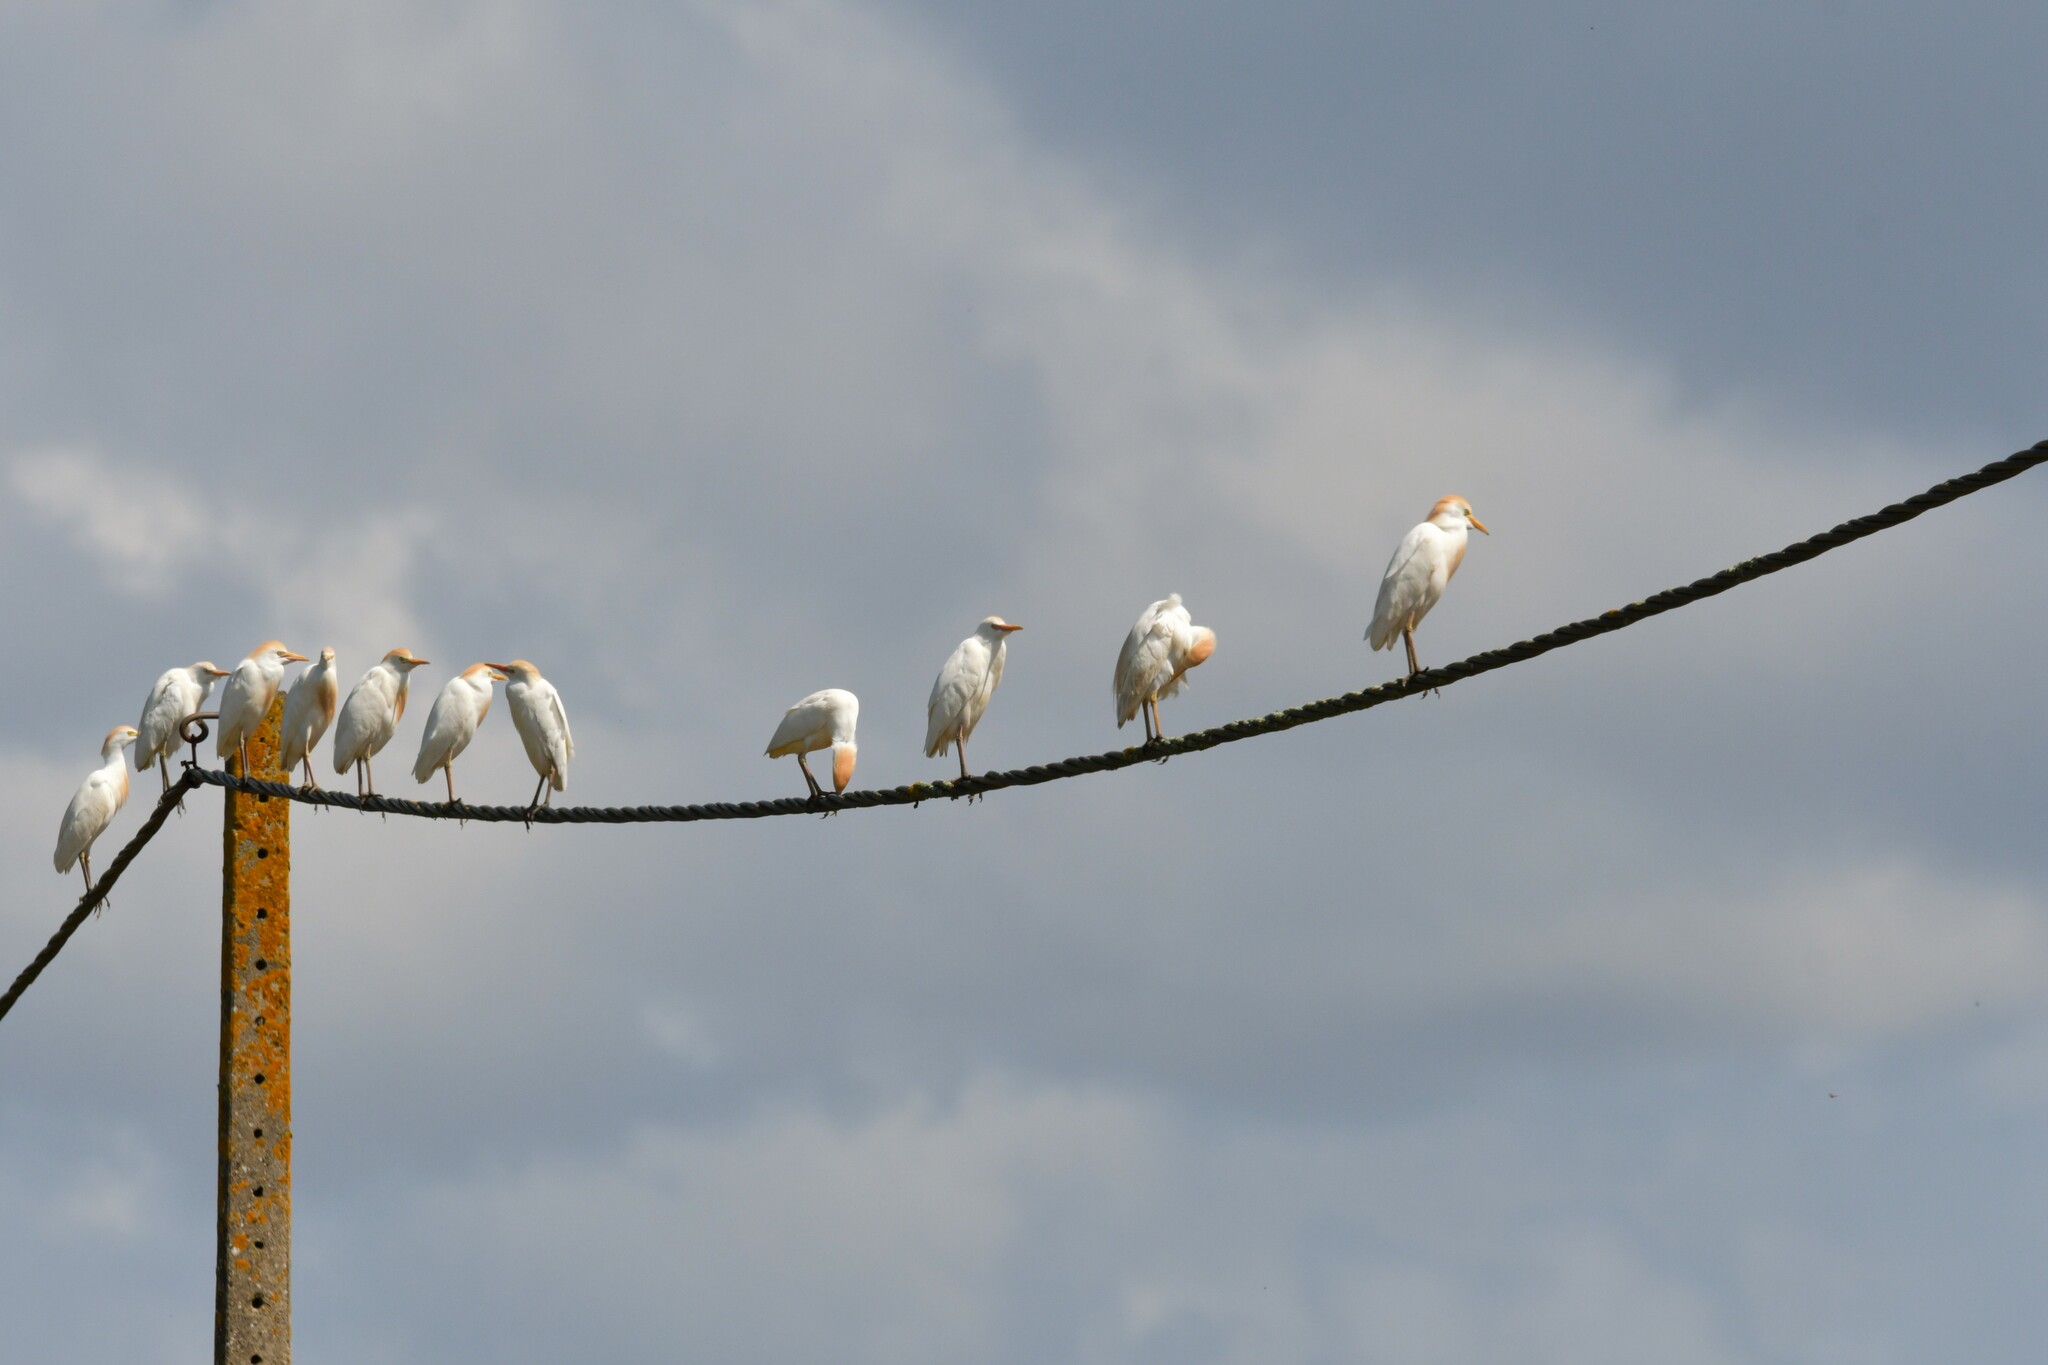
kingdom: Animalia
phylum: Chordata
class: Aves
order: Pelecaniformes
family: Ardeidae
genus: Bubulcus
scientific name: Bubulcus ibis
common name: Cattle egret
